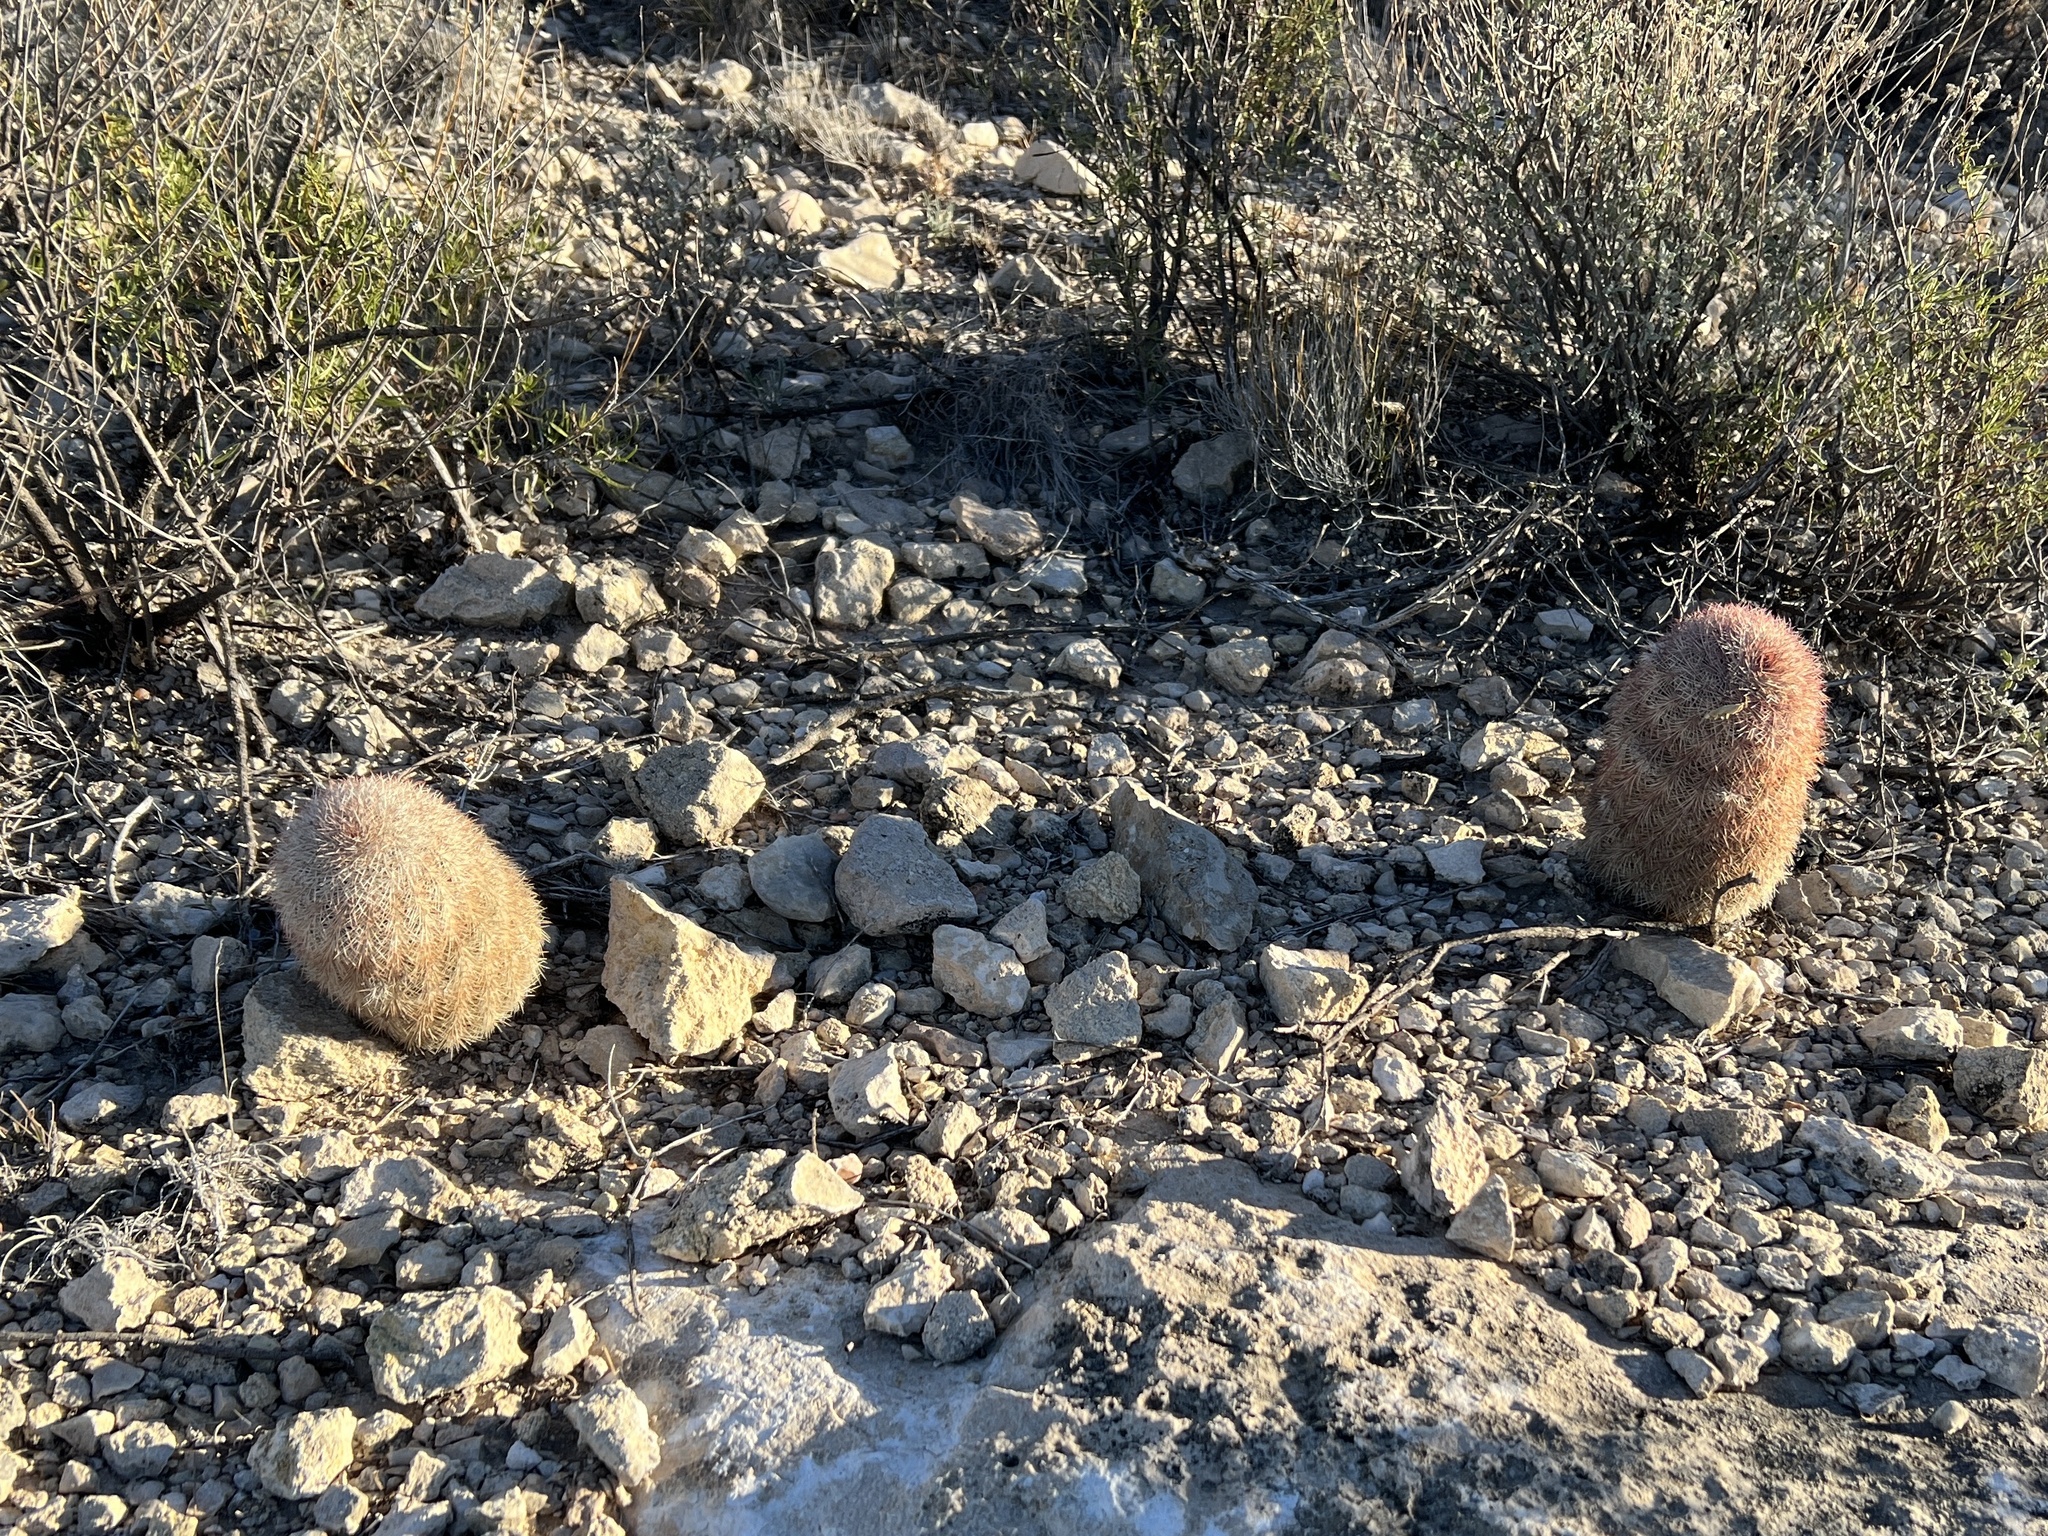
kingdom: Plantae
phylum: Tracheophyta
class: Magnoliopsida
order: Caryophyllales
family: Cactaceae
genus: Echinocereus
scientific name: Echinocereus dasyacanthus
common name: Spiny hedgehog cactus
